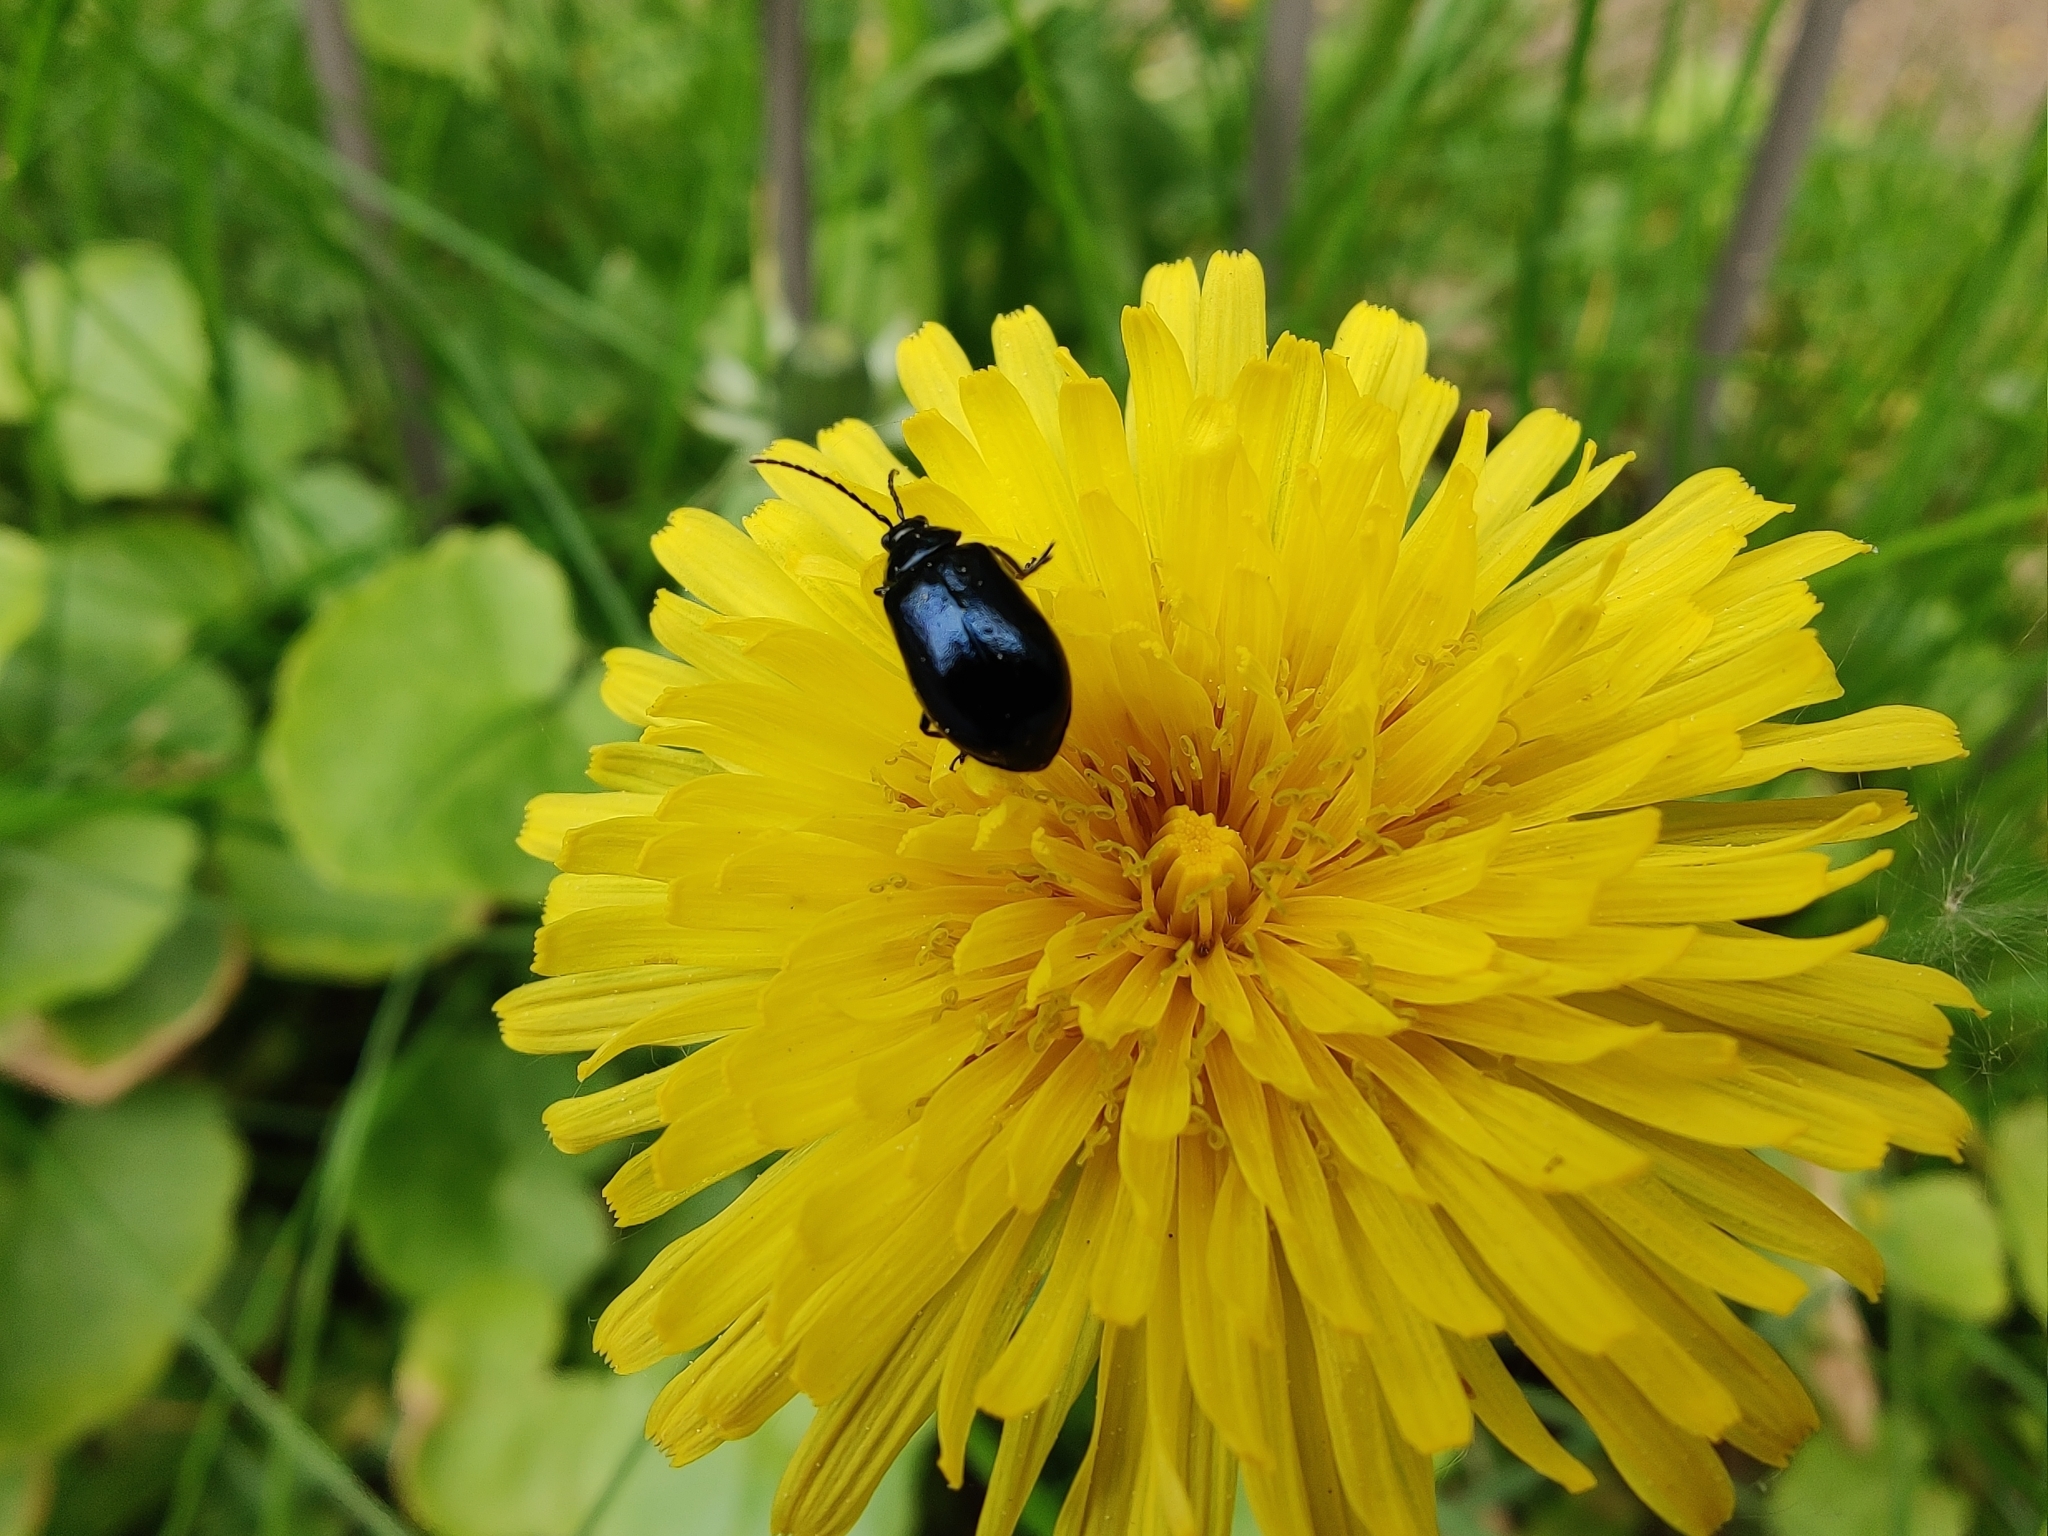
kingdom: Animalia
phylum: Arthropoda
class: Insecta
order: Coleoptera
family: Chrysomelidae
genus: Agelastica
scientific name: Agelastica alni
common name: Alder leaf beetle
